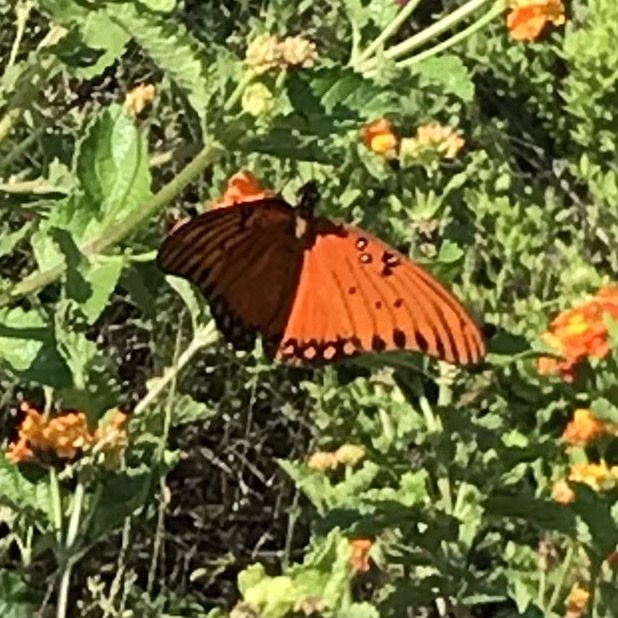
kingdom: Animalia
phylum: Arthropoda
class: Insecta
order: Lepidoptera
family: Nymphalidae
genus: Dione
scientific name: Dione vanillae
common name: Gulf fritillary
